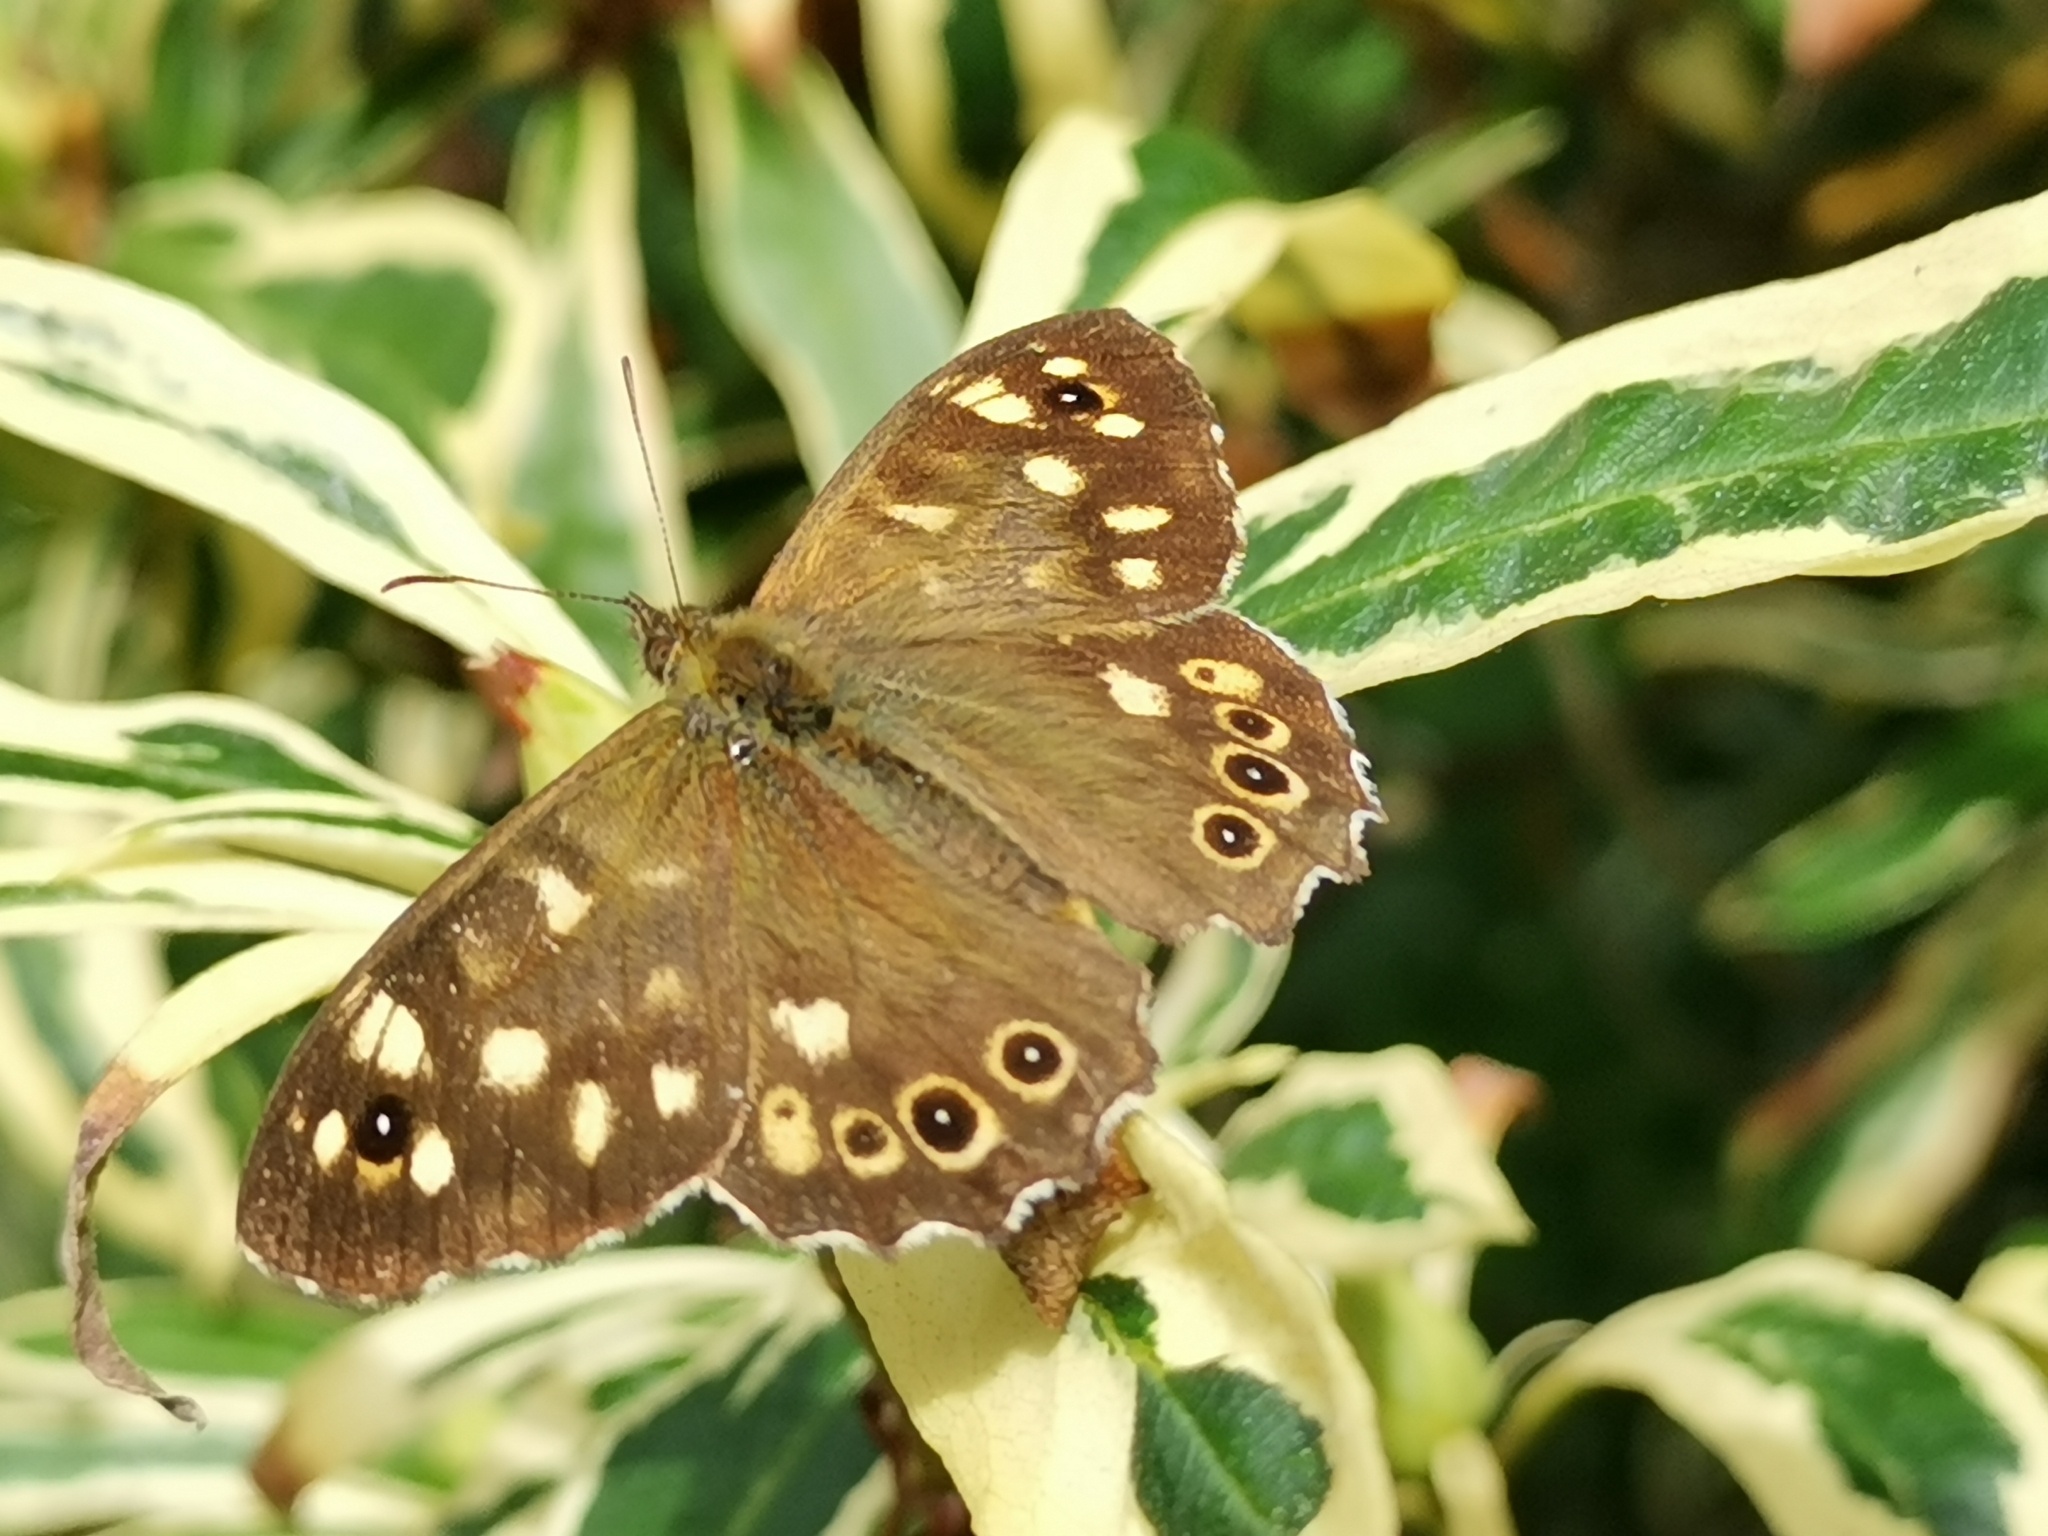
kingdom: Animalia
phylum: Arthropoda
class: Insecta
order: Lepidoptera
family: Nymphalidae
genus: Pararge
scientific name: Pararge aegeria
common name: Speckled wood
